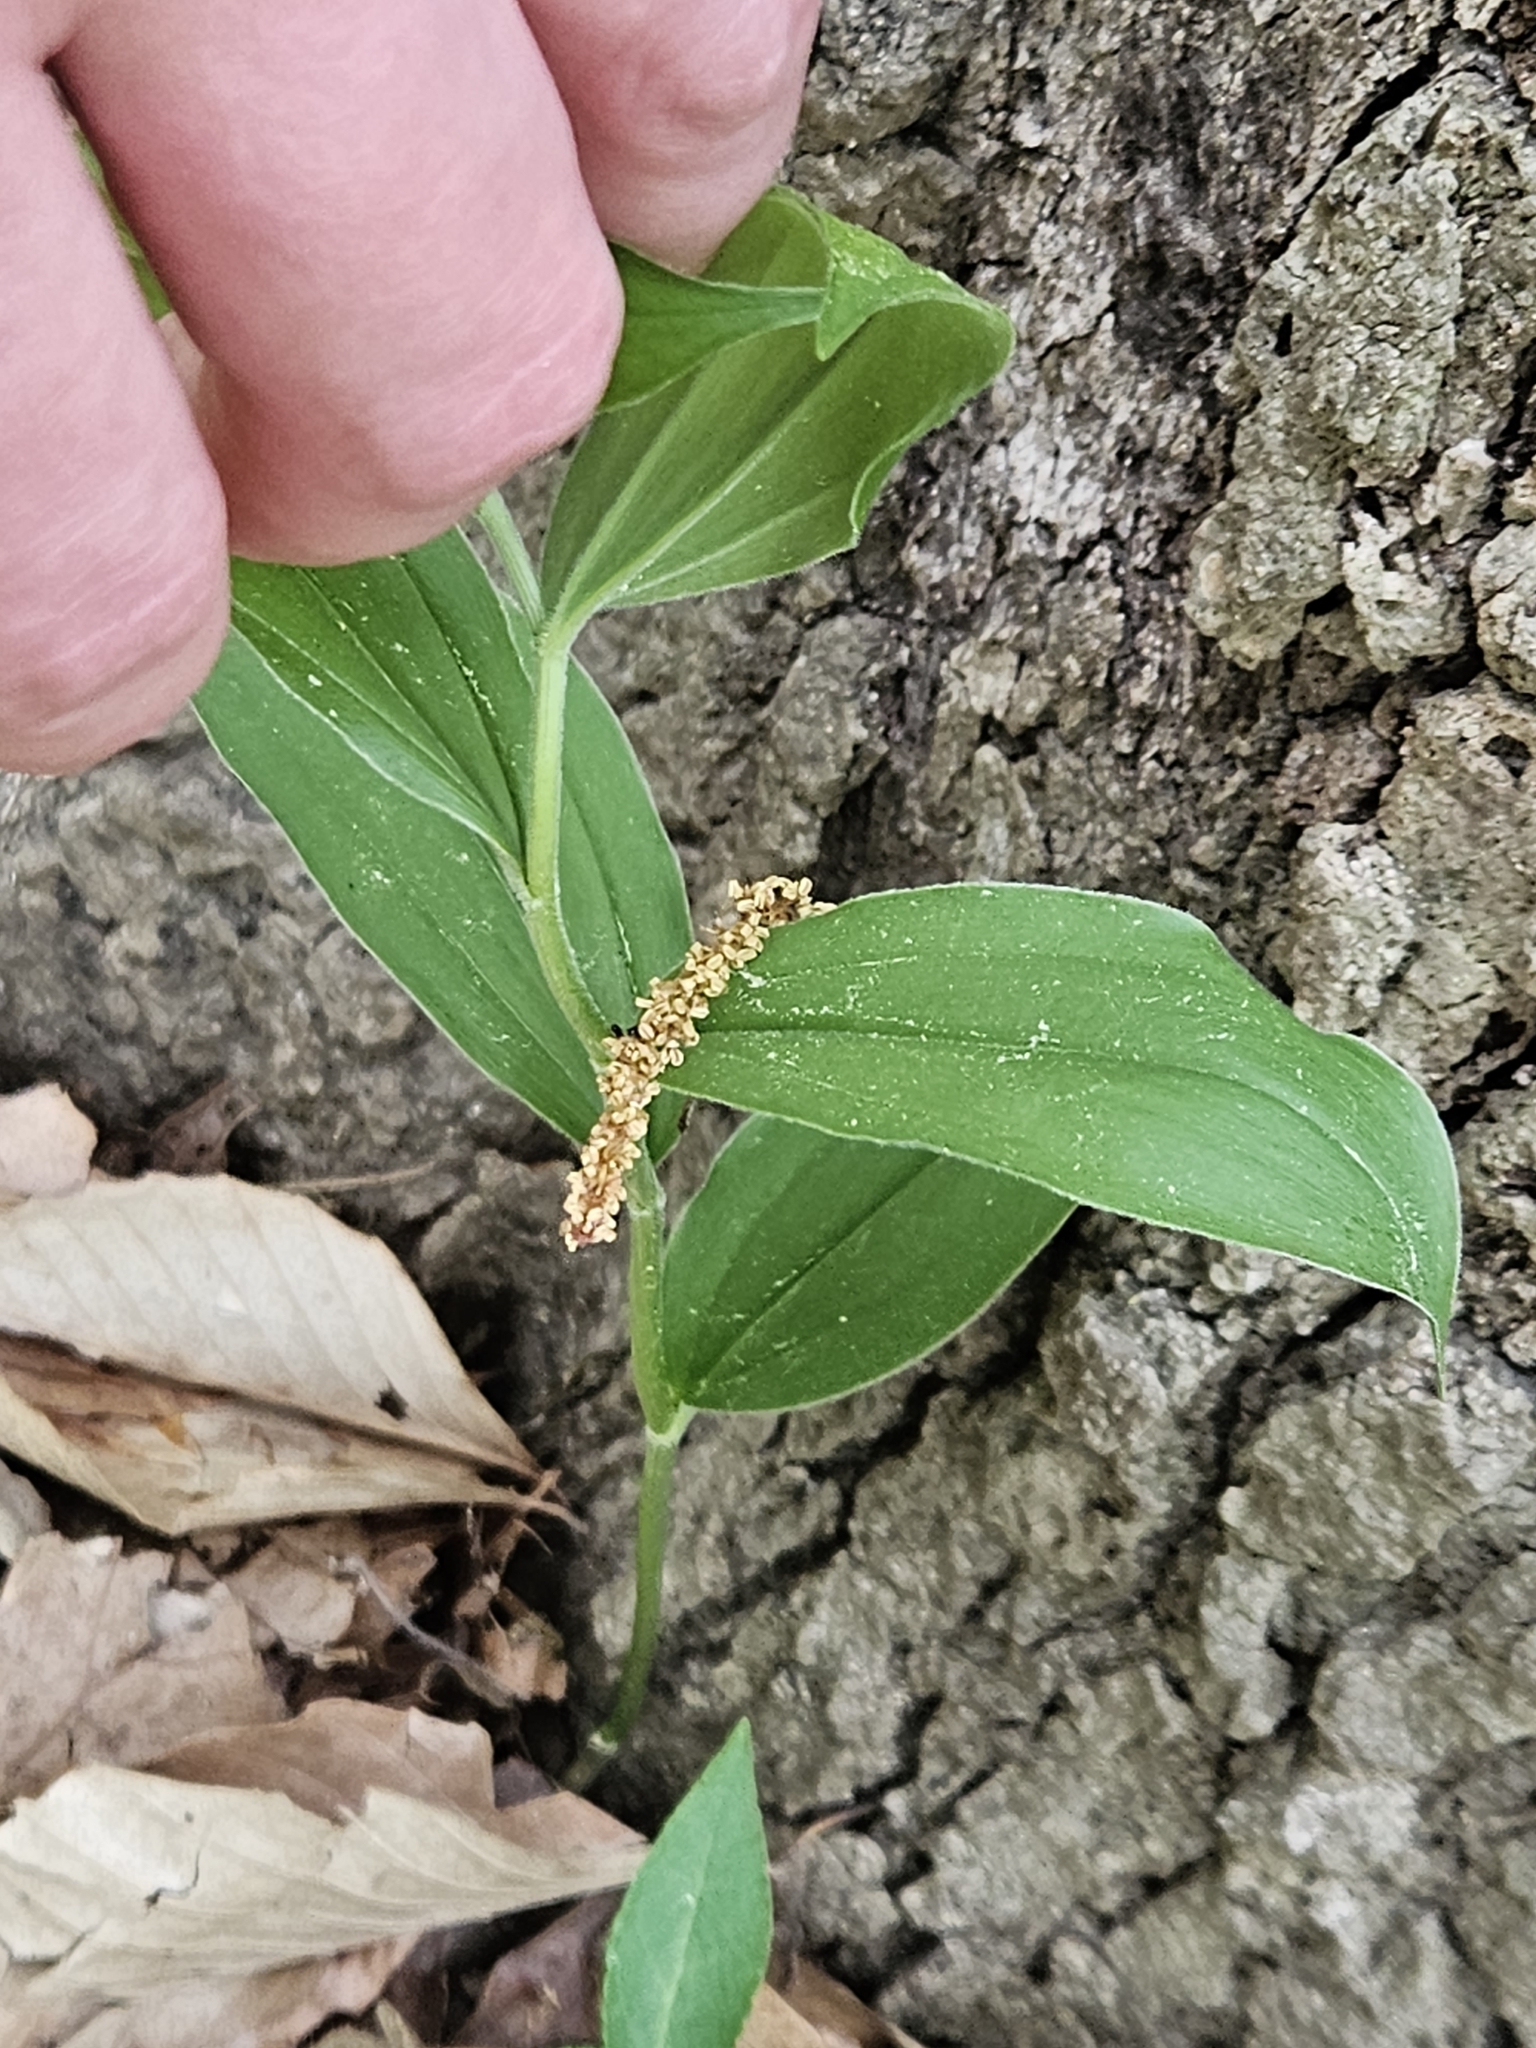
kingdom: Plantae
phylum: Tracheophyta
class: Liliopsida
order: Asparagales
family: Asparagaceae
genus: Maianthemum
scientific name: Maianthemum racemosum
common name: False spikenard
